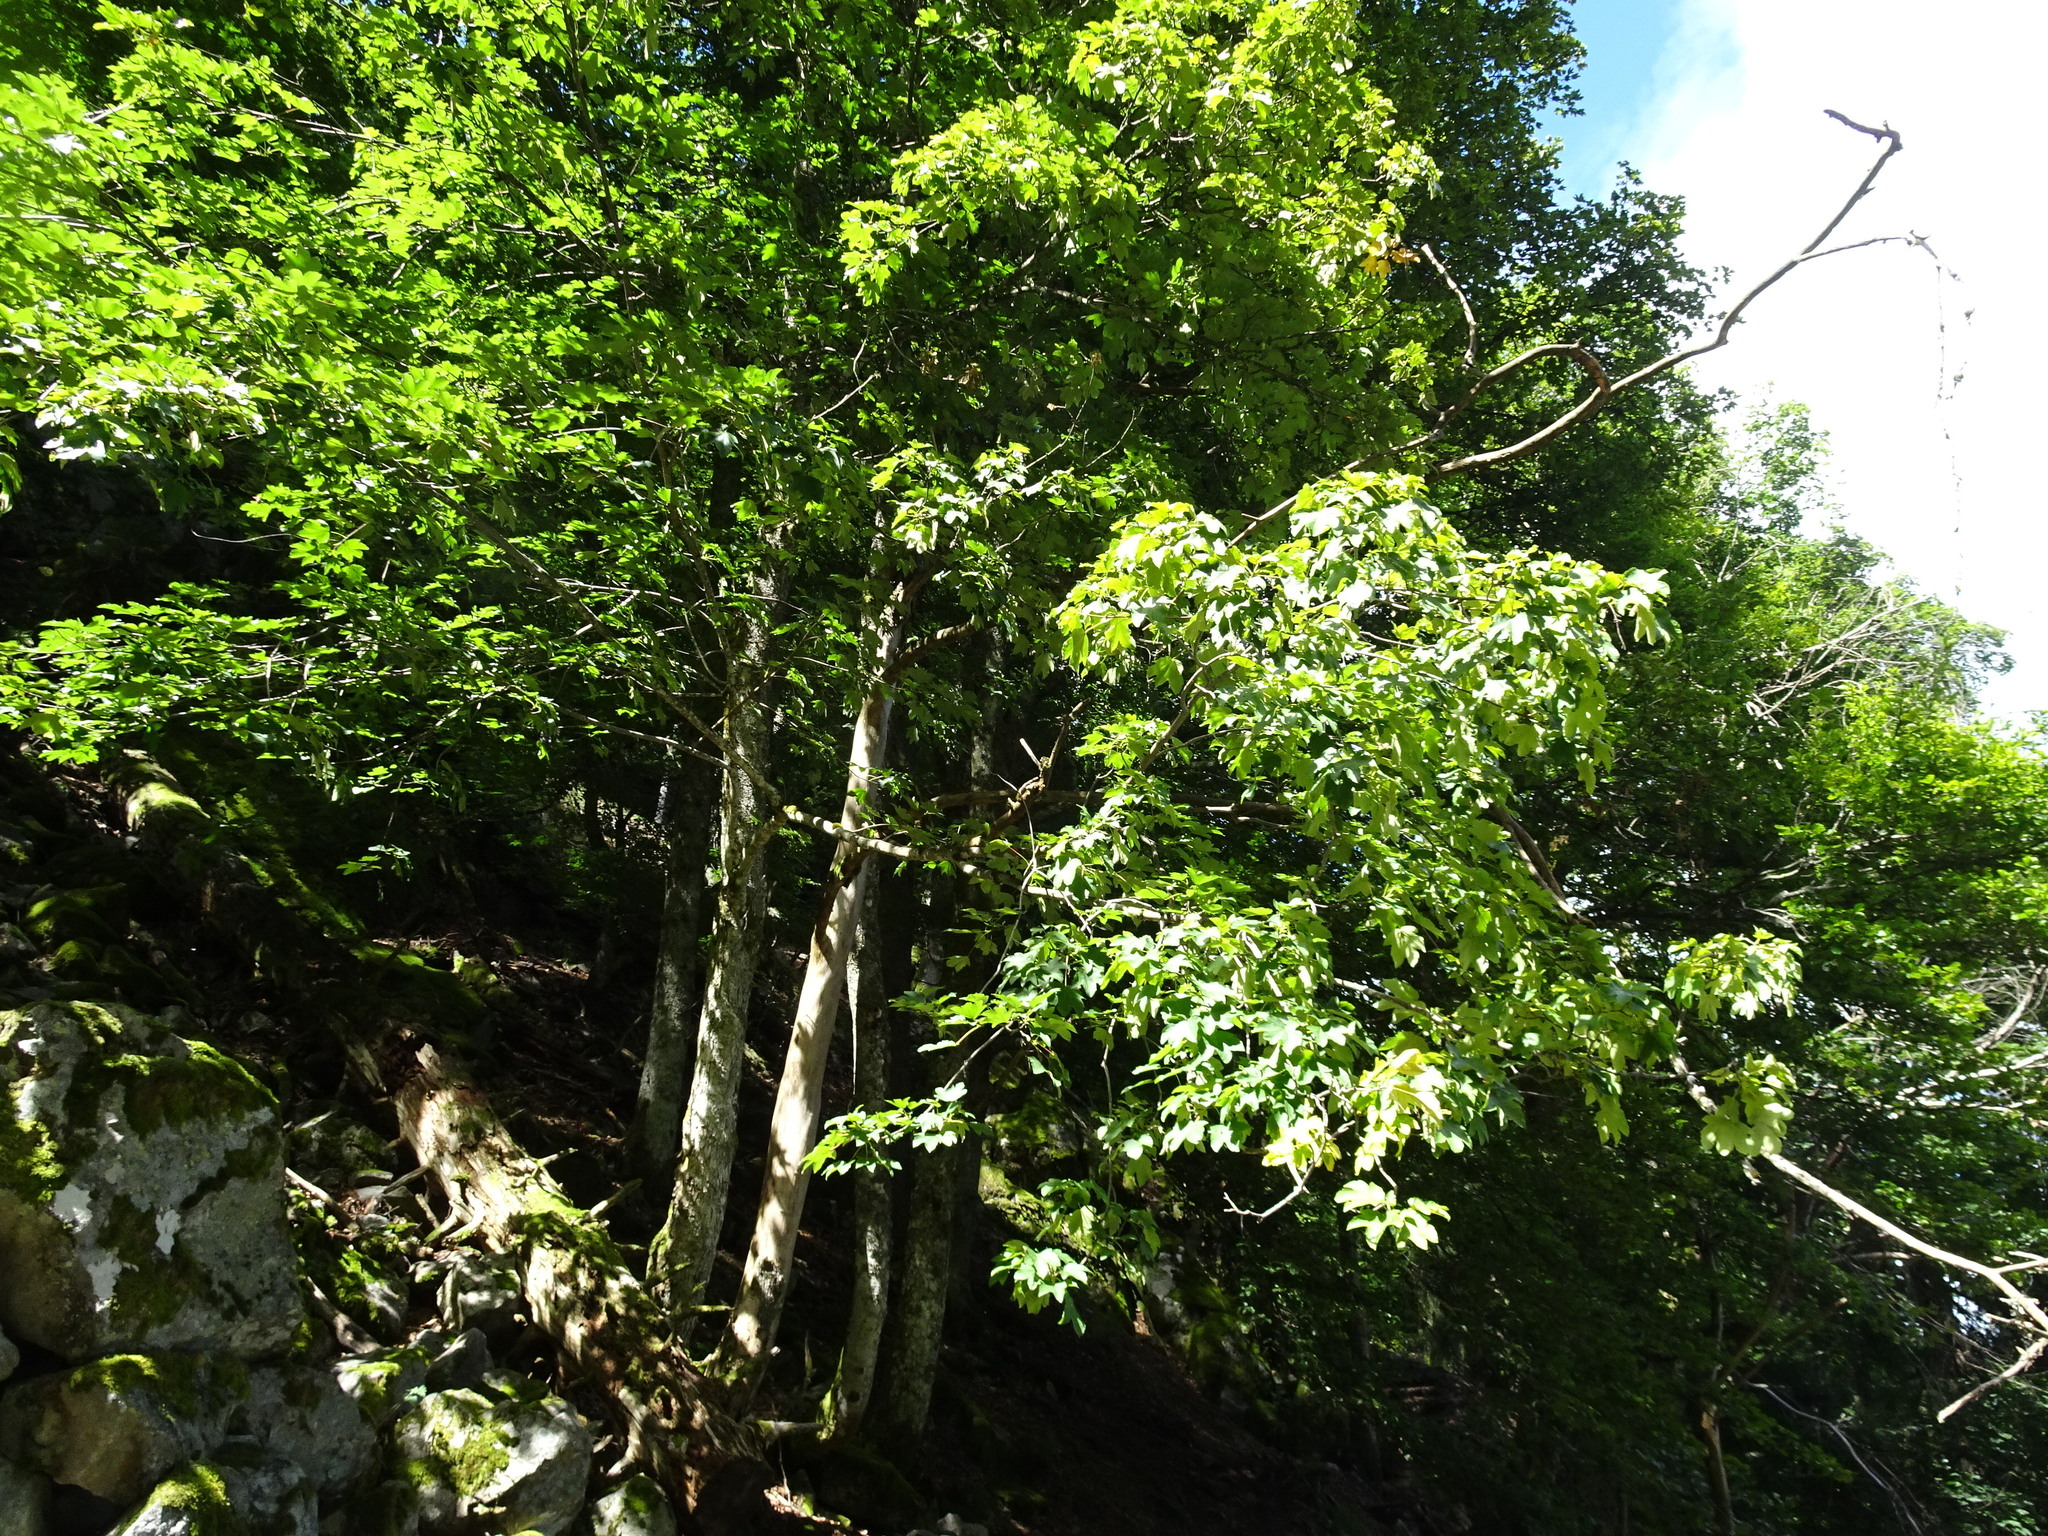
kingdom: Plantae
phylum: Tracheophyta
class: Magnoliopsida
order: Sapindales
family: Sapindaceae
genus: Acer
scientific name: Acer pseudoplatanus
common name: Sycamore
